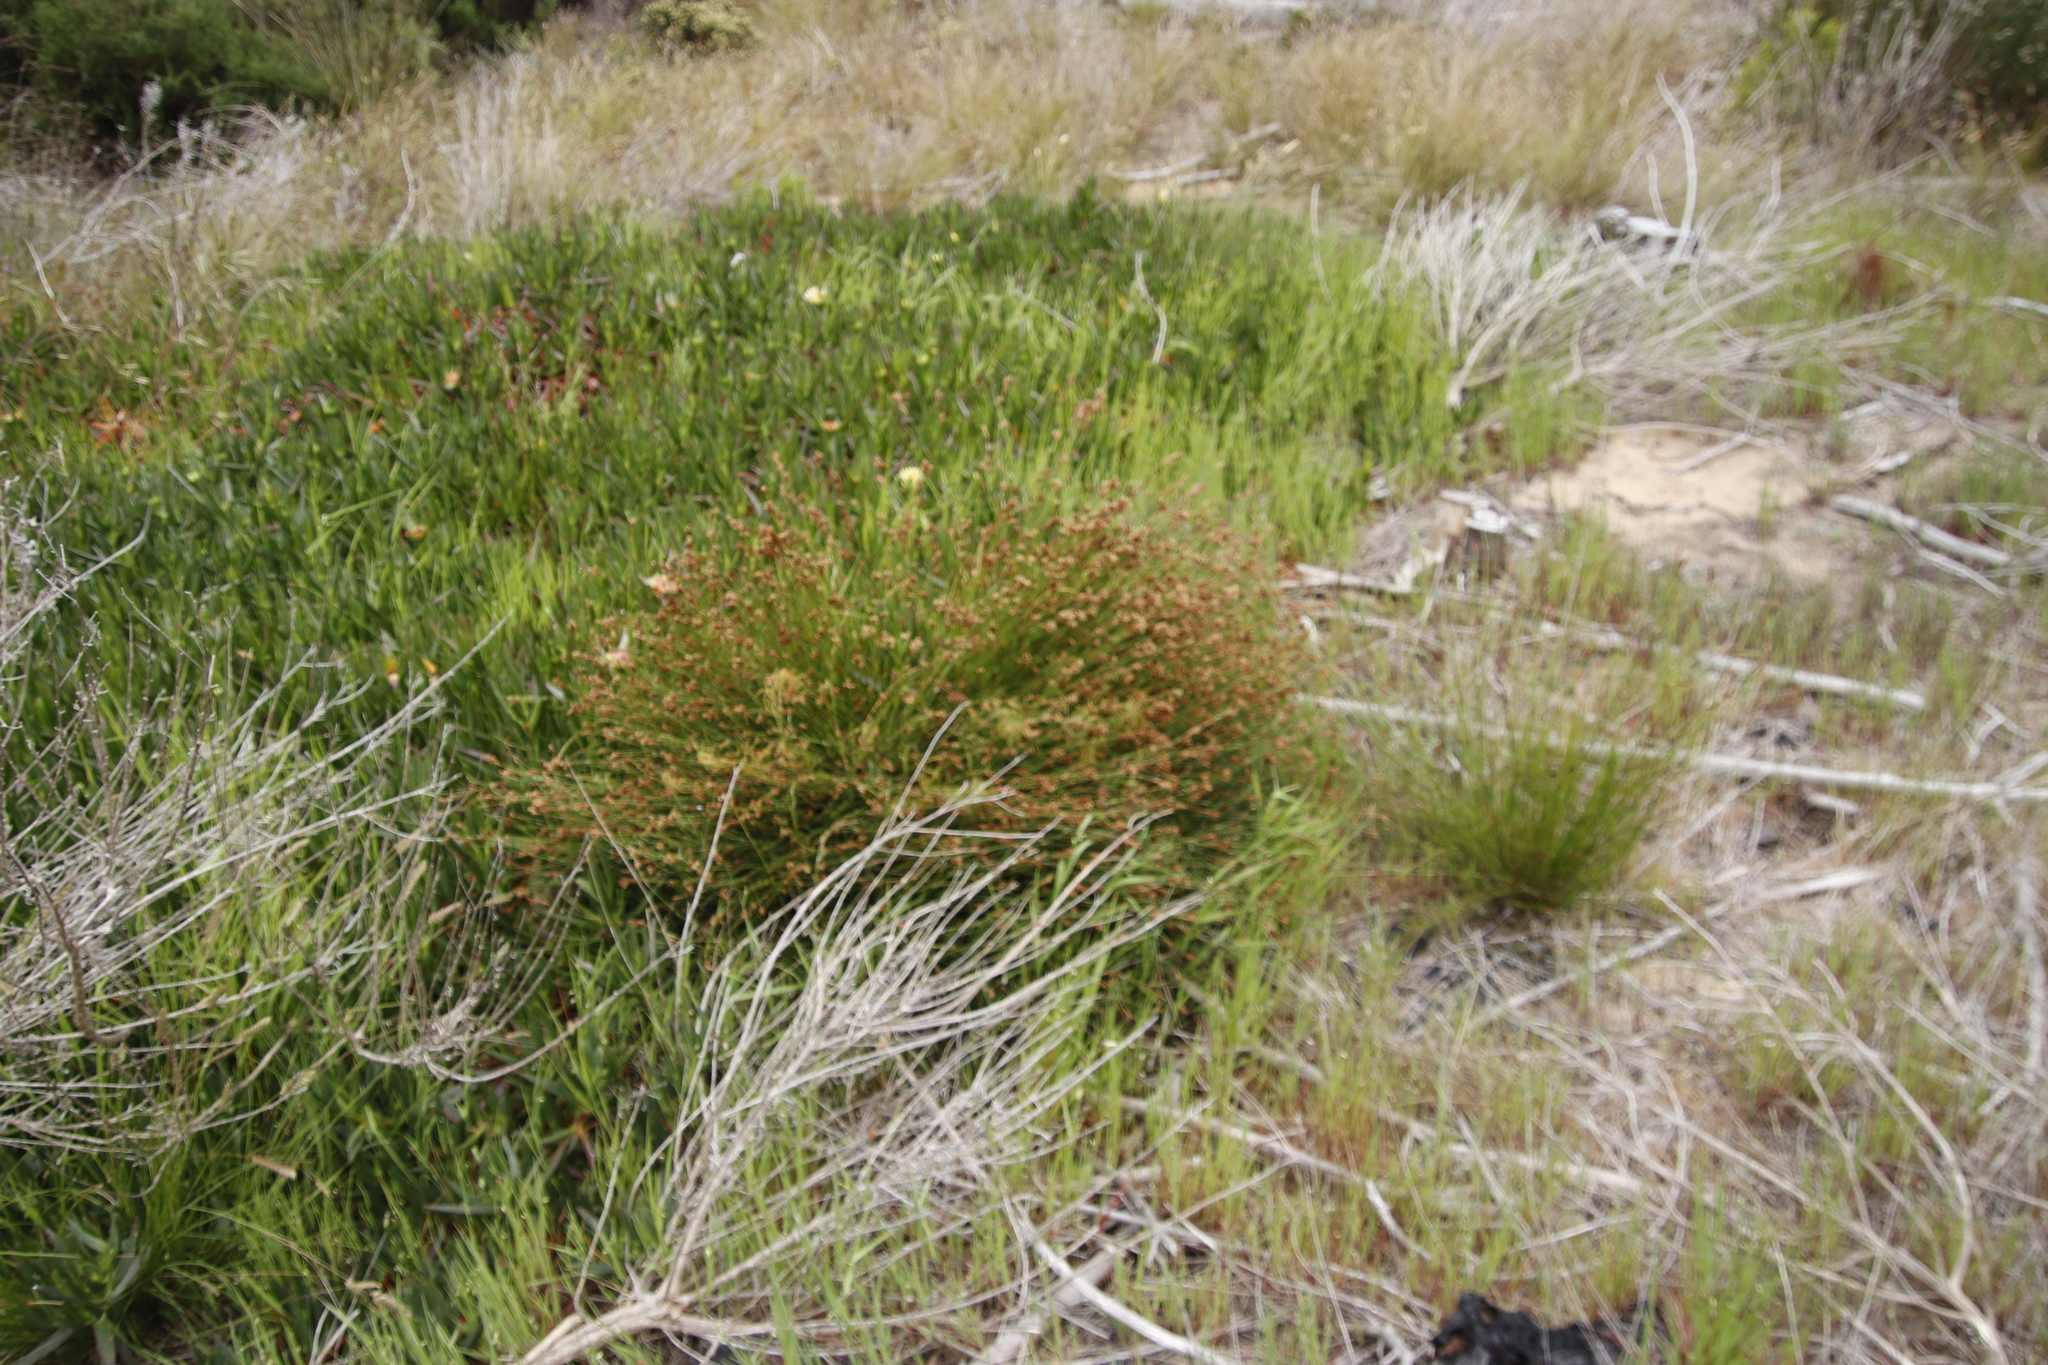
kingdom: Plantae
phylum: Tracheophyta
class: Liliopsida
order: Poales
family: Restionaceae
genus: Restio
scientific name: Restio capensis
